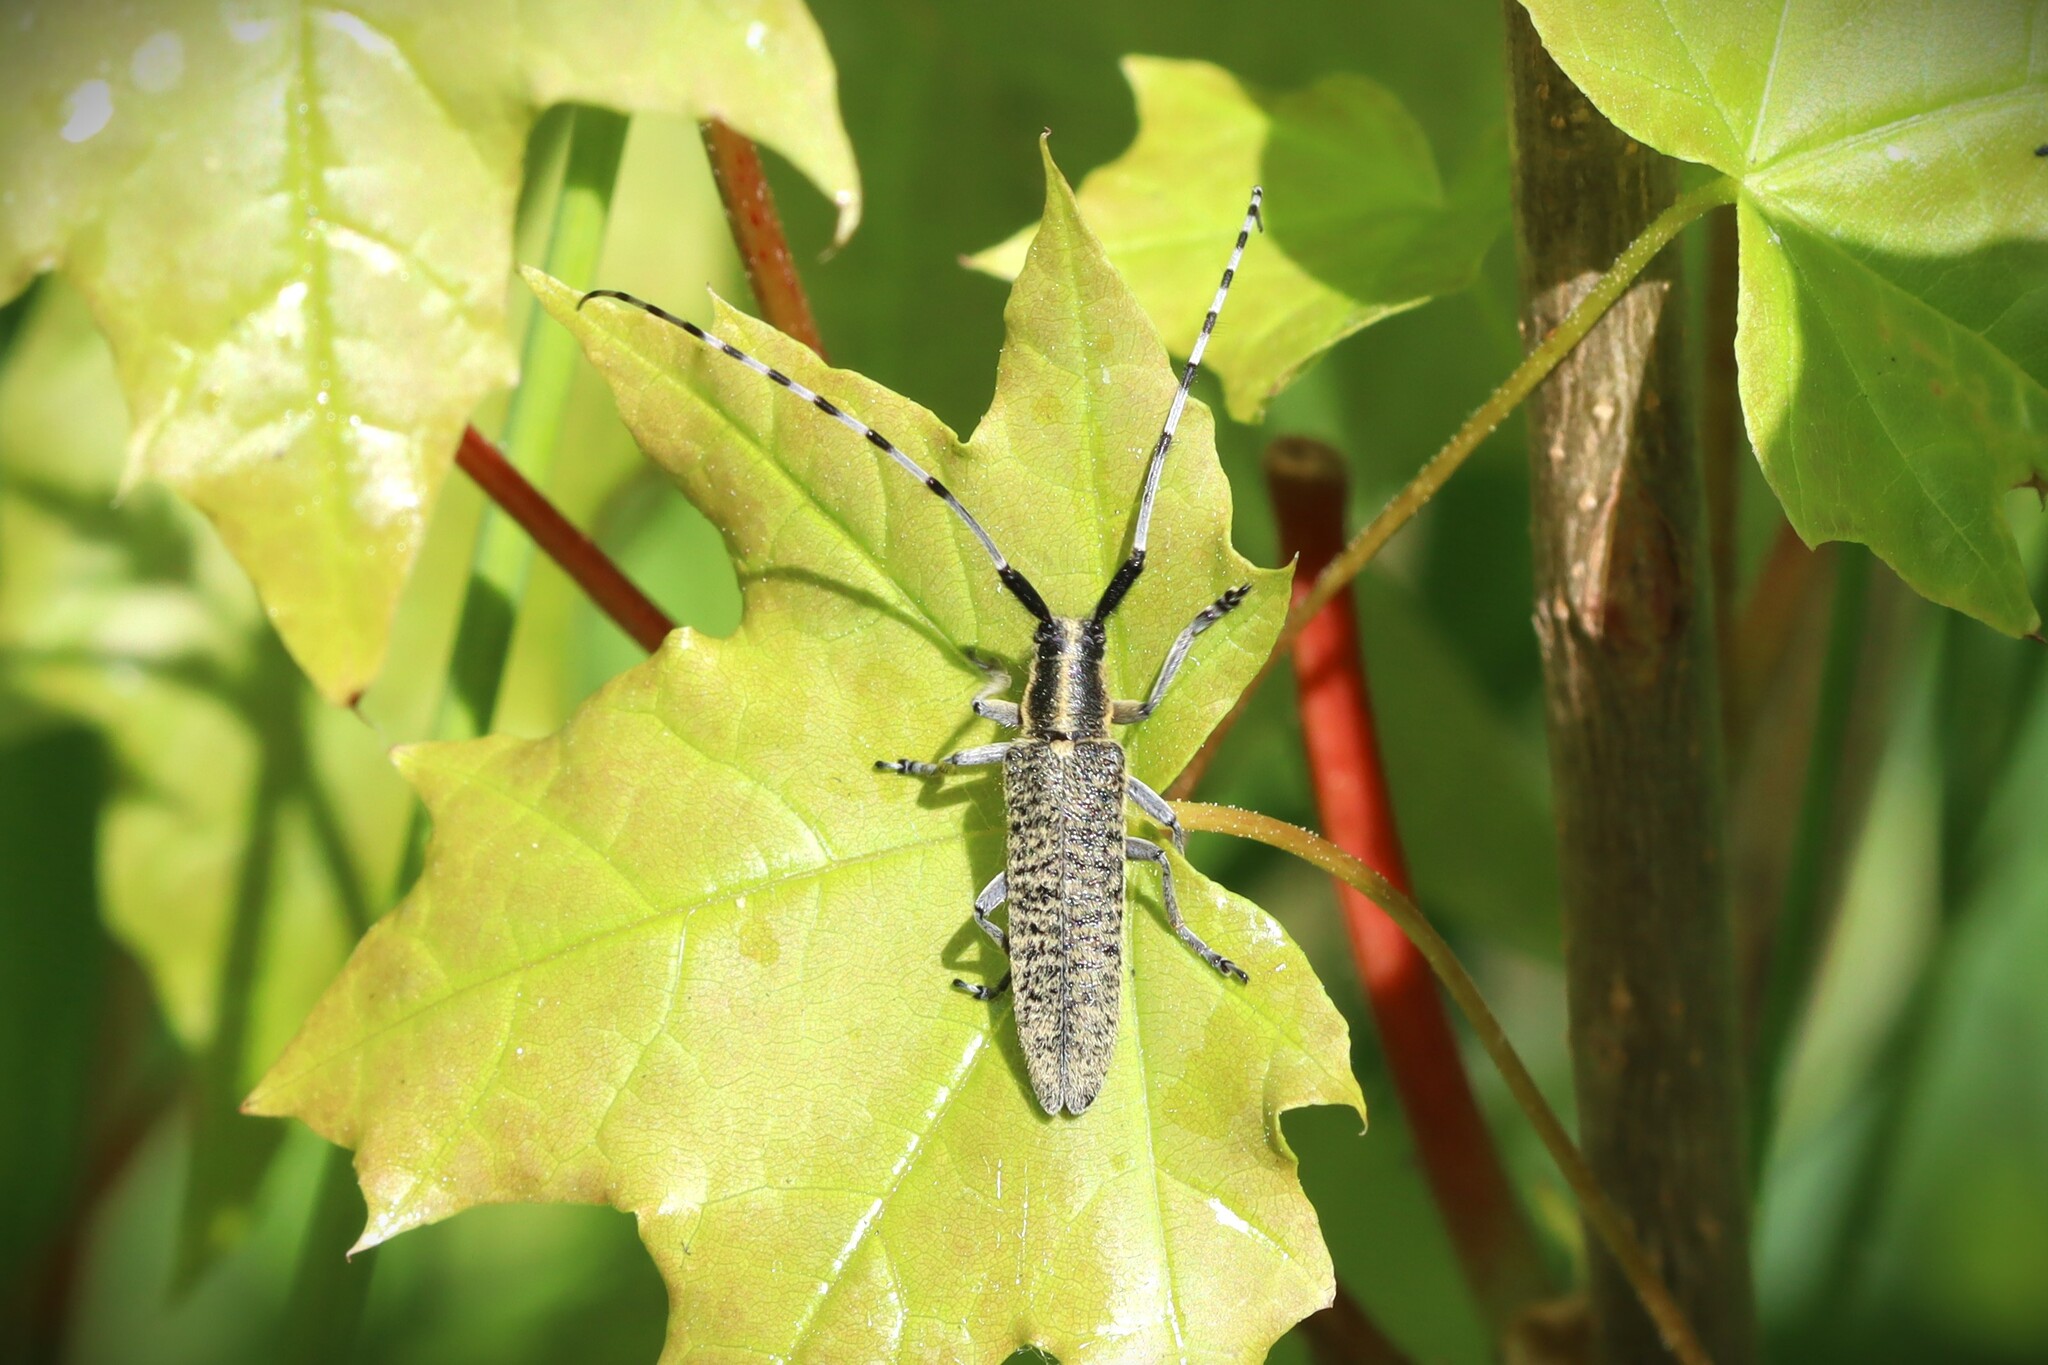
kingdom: Animalia
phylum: Arthropoda
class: Insecta
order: Coleoptera
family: Cerambycidae
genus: Agapanthia
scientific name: Agapanthia villosoviridescens
